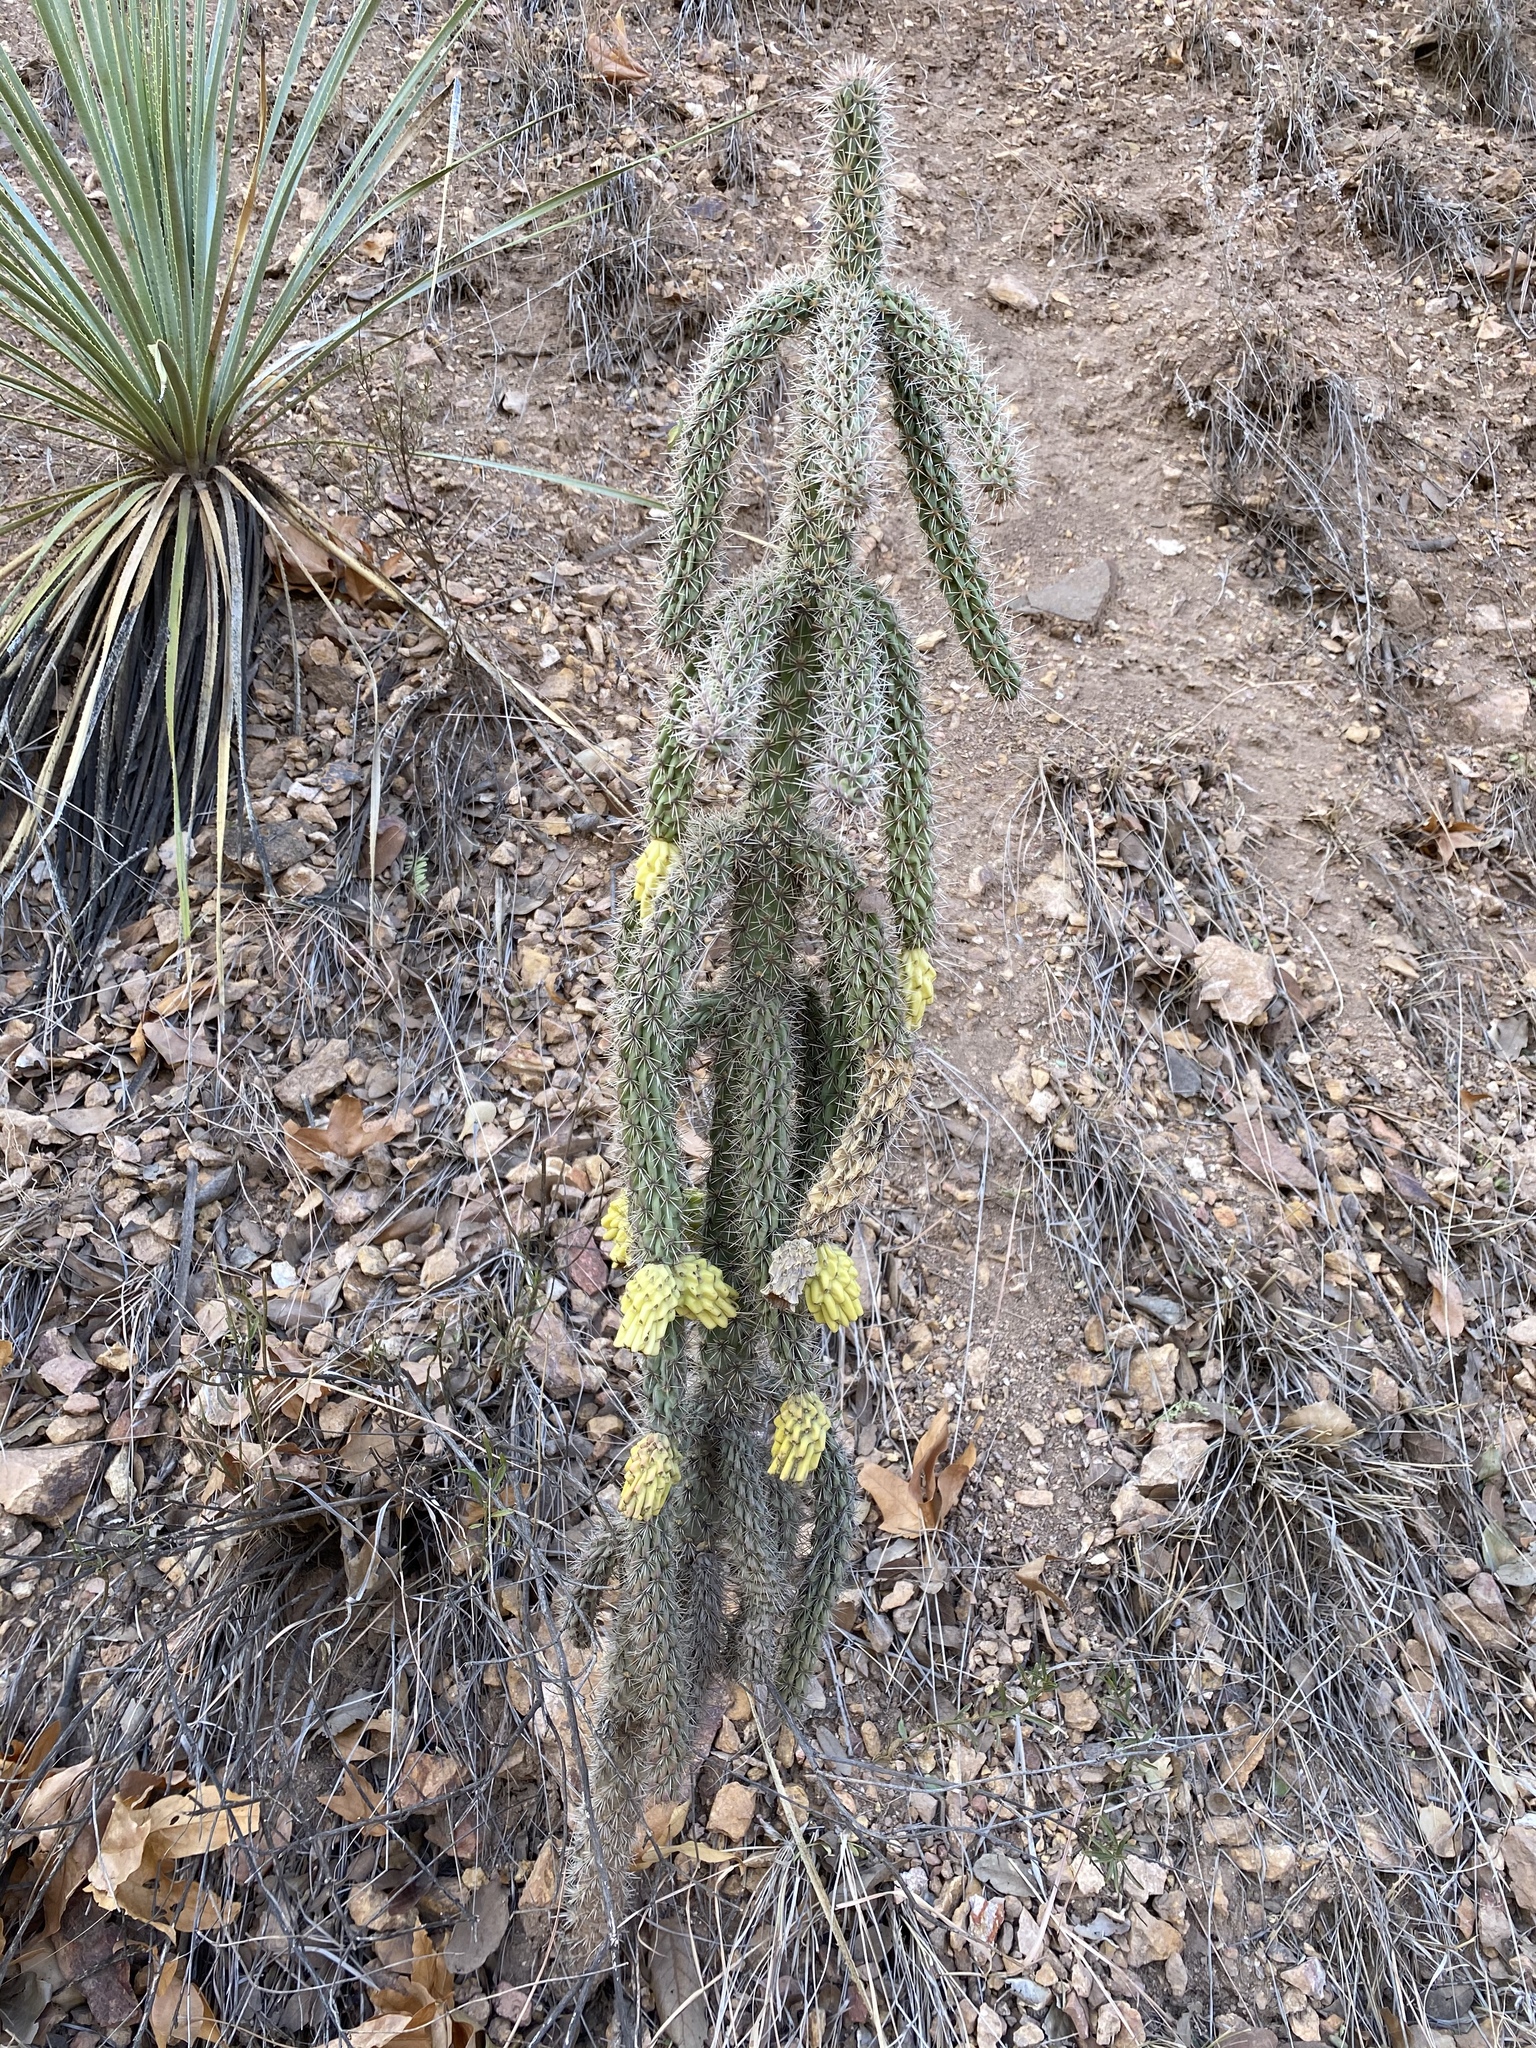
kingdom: Plantae
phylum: Tracheophyta
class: Magnoliopsida
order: Caryophyllales
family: Cactaceae
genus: Cylindropuntia
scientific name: Cylindropuntia imbricata
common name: Candelabrum cactus
